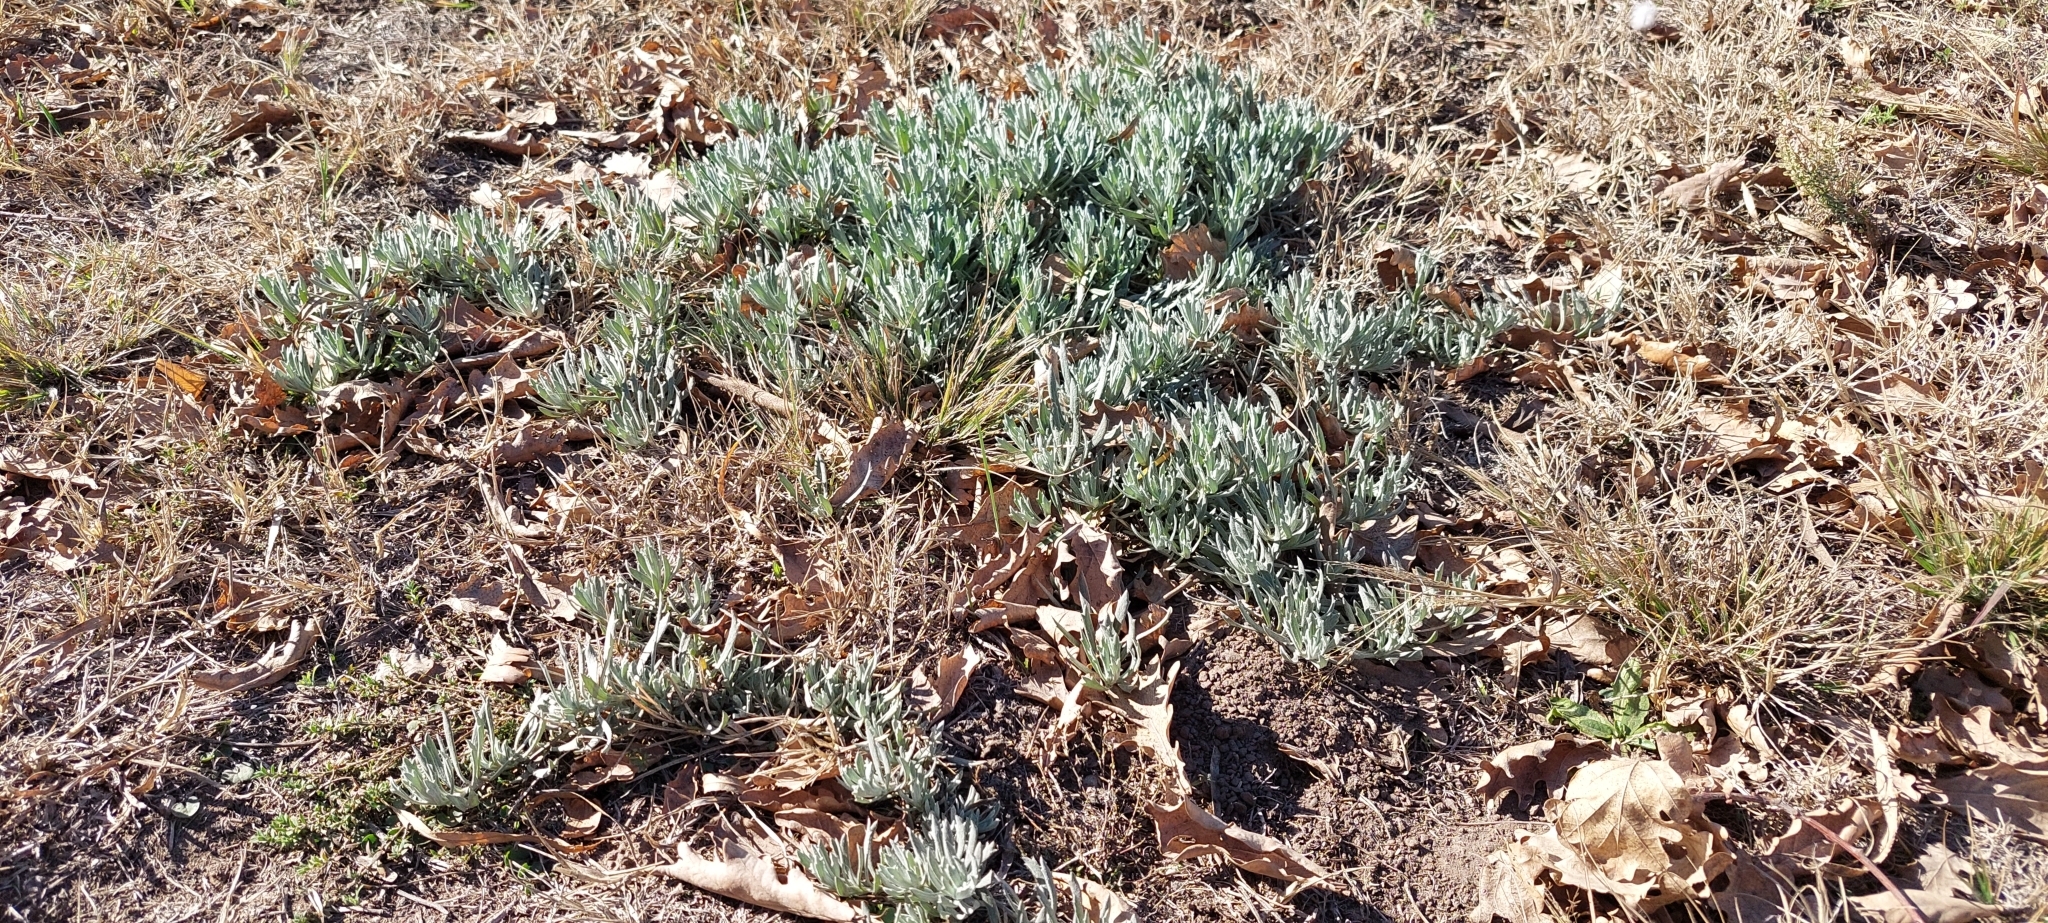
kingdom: Plantae
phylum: Tracheophyta
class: Magnoliopsida
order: Asterales
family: Asteraceae
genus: Senecio
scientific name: Senecio ceratophylloides
